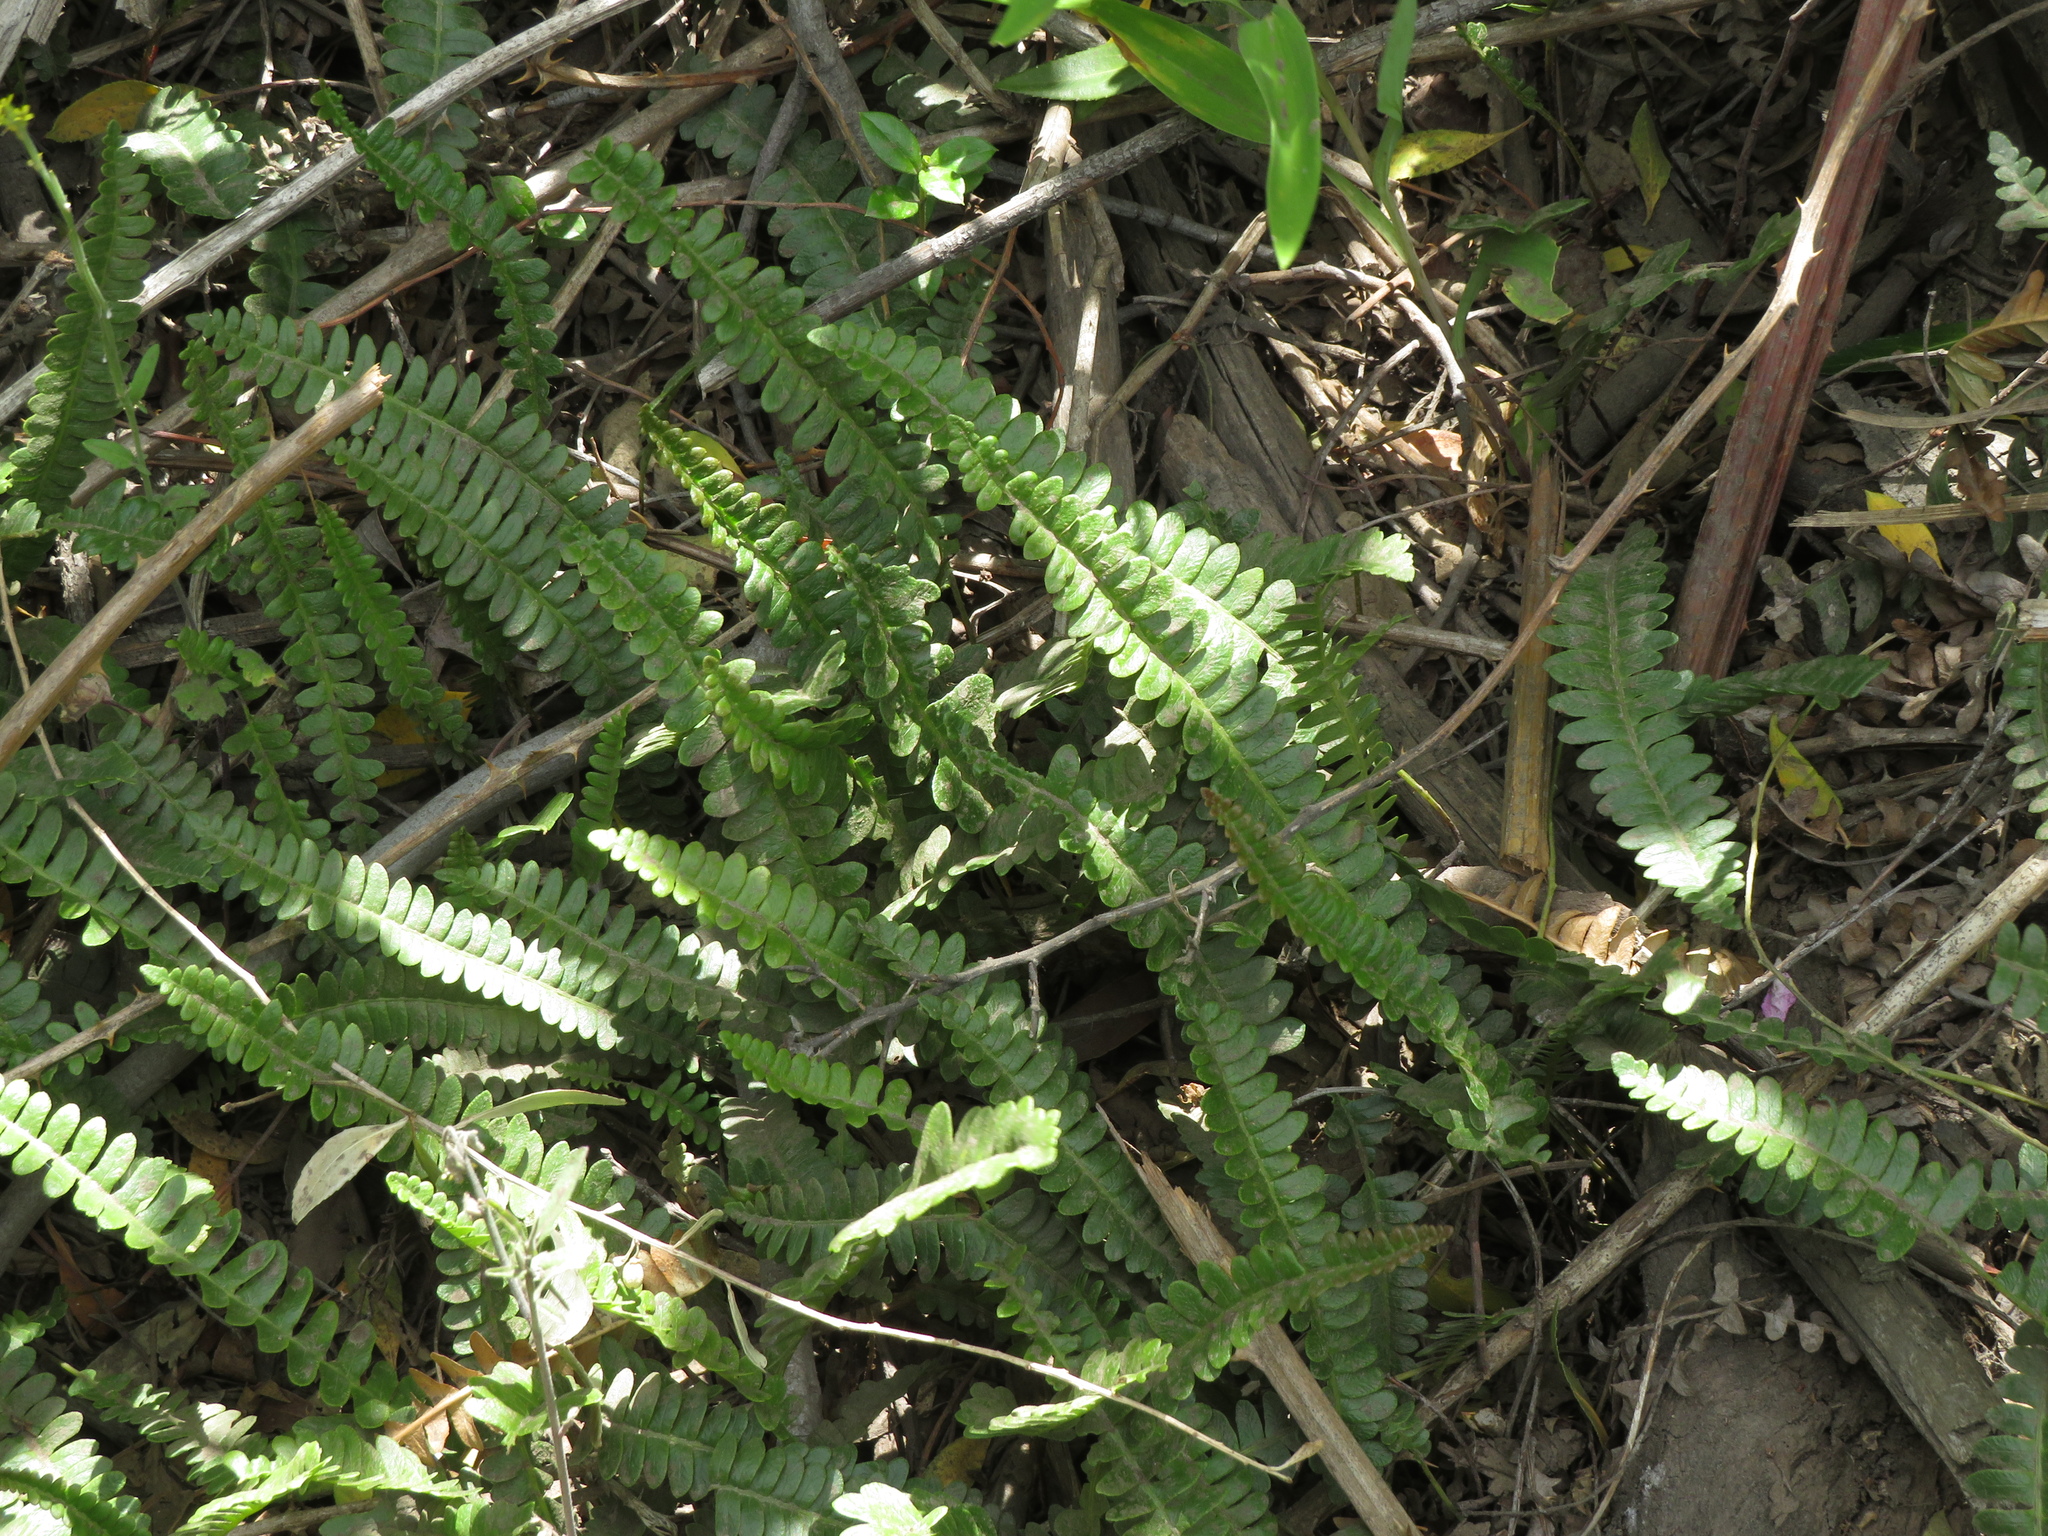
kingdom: Plantae
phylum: Tracheophyta
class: Polypodiopsida
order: Polypodiales
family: Blechnaceae
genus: Austroblechnum
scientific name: Austroblechnum penna-marina
